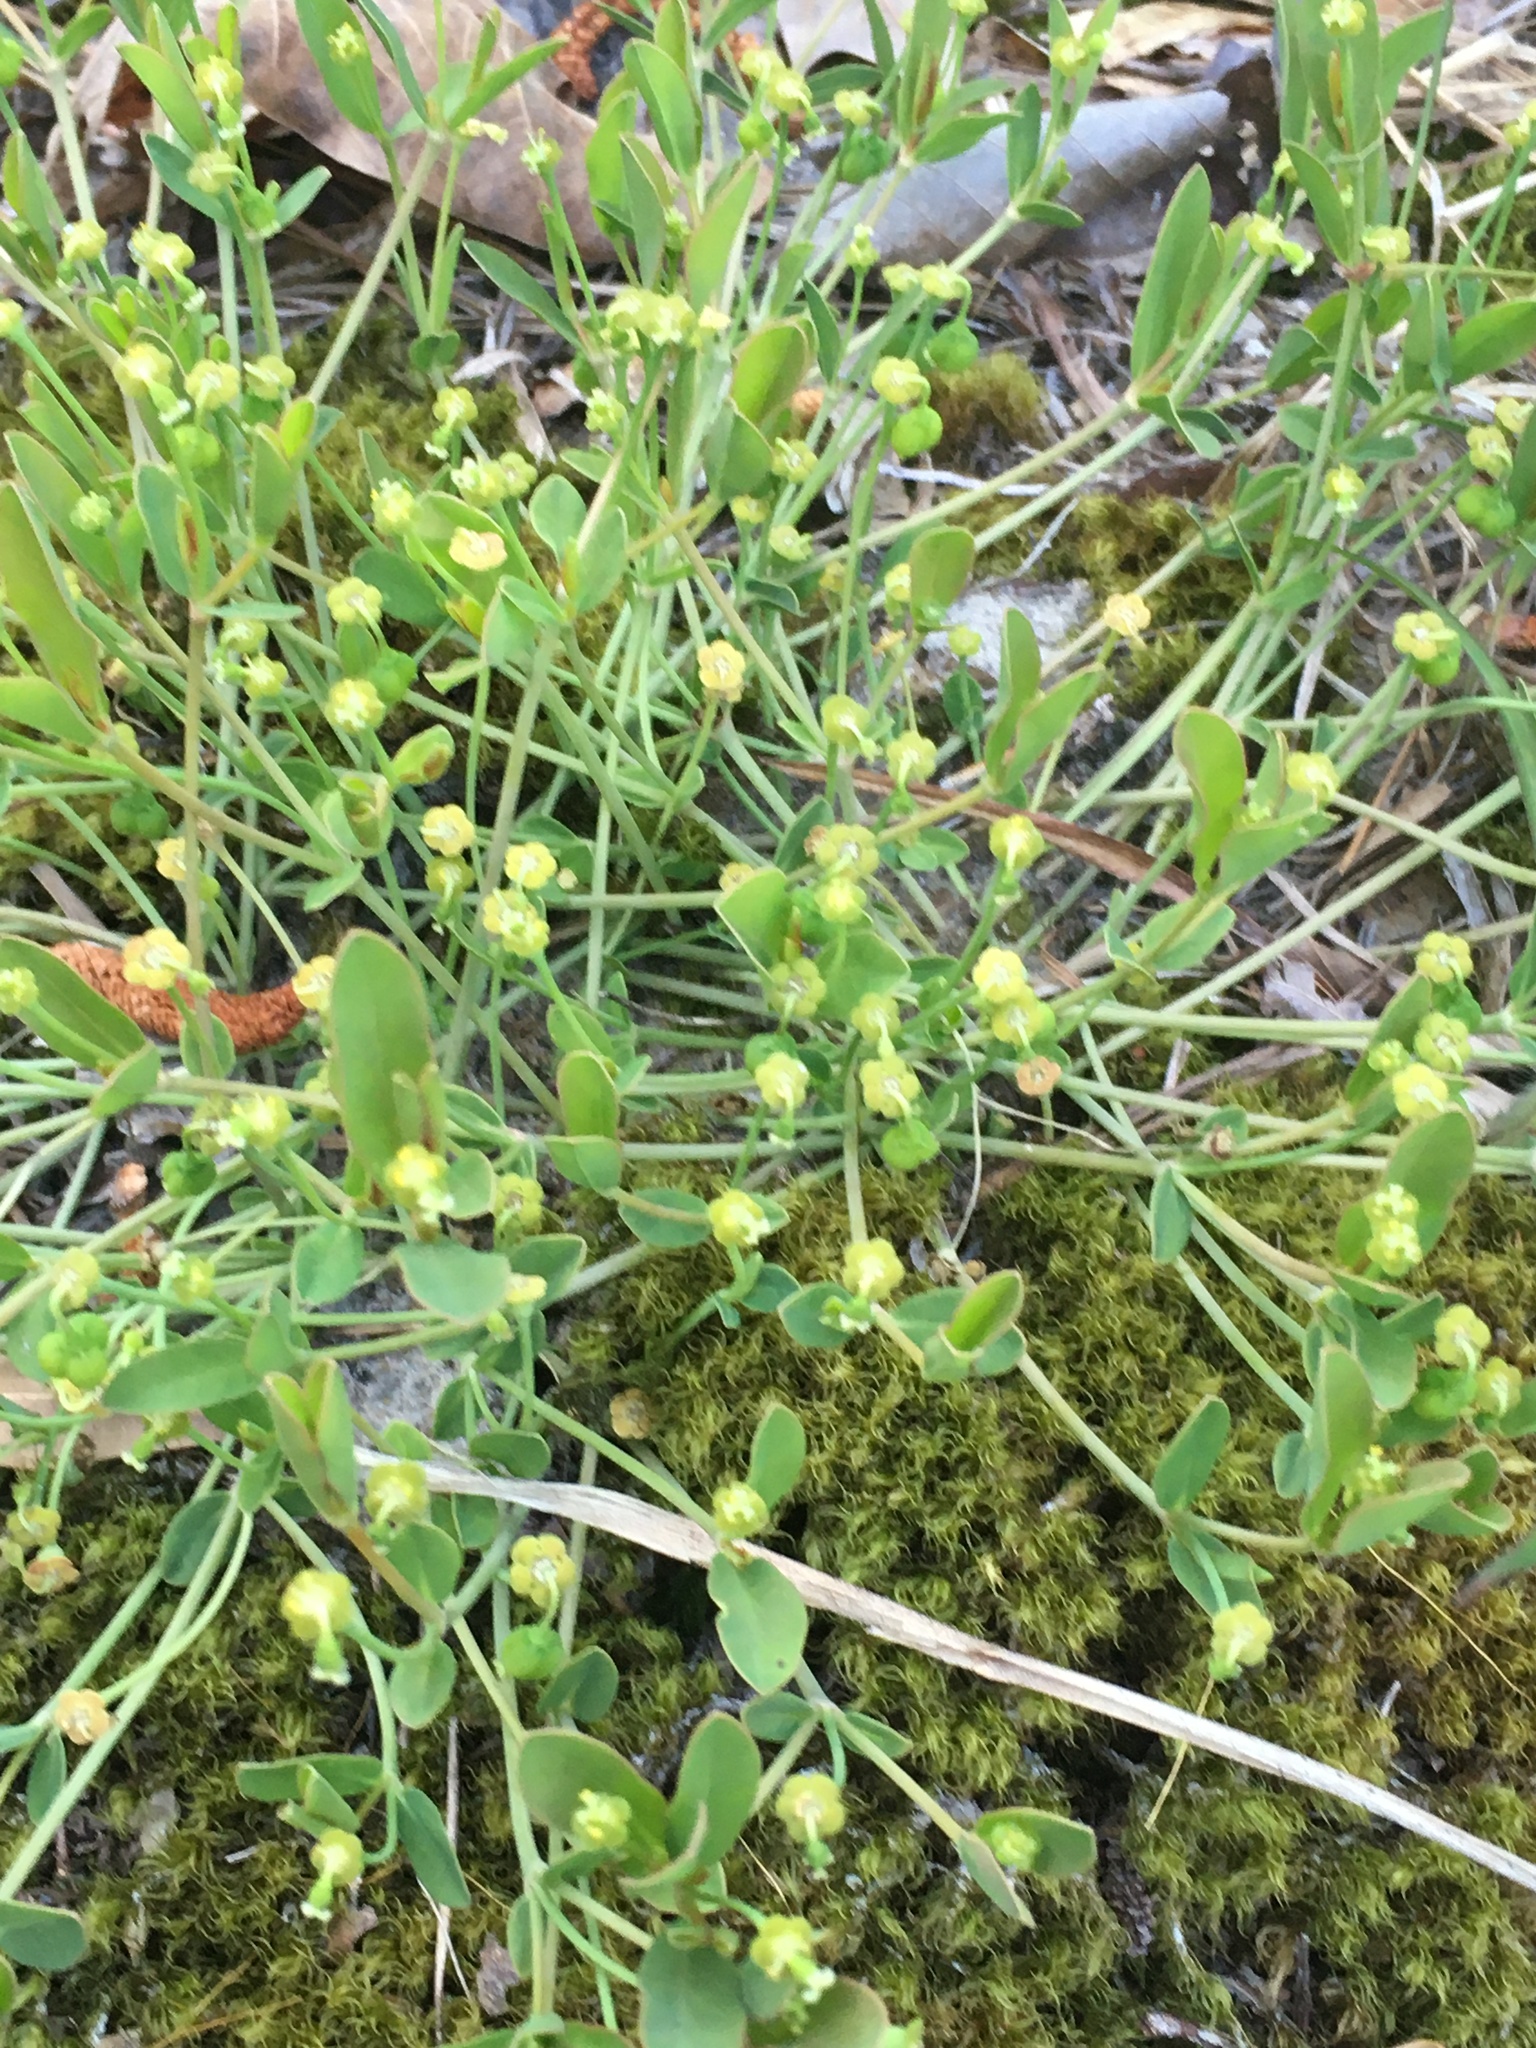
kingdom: Plantae
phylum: Tracheophyta
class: Magnoliopsida
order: Malpighiales
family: Euphorbiaceae
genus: Euphorbia
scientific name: Euphorbia ipecacuanhae
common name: Carolina ipecac
